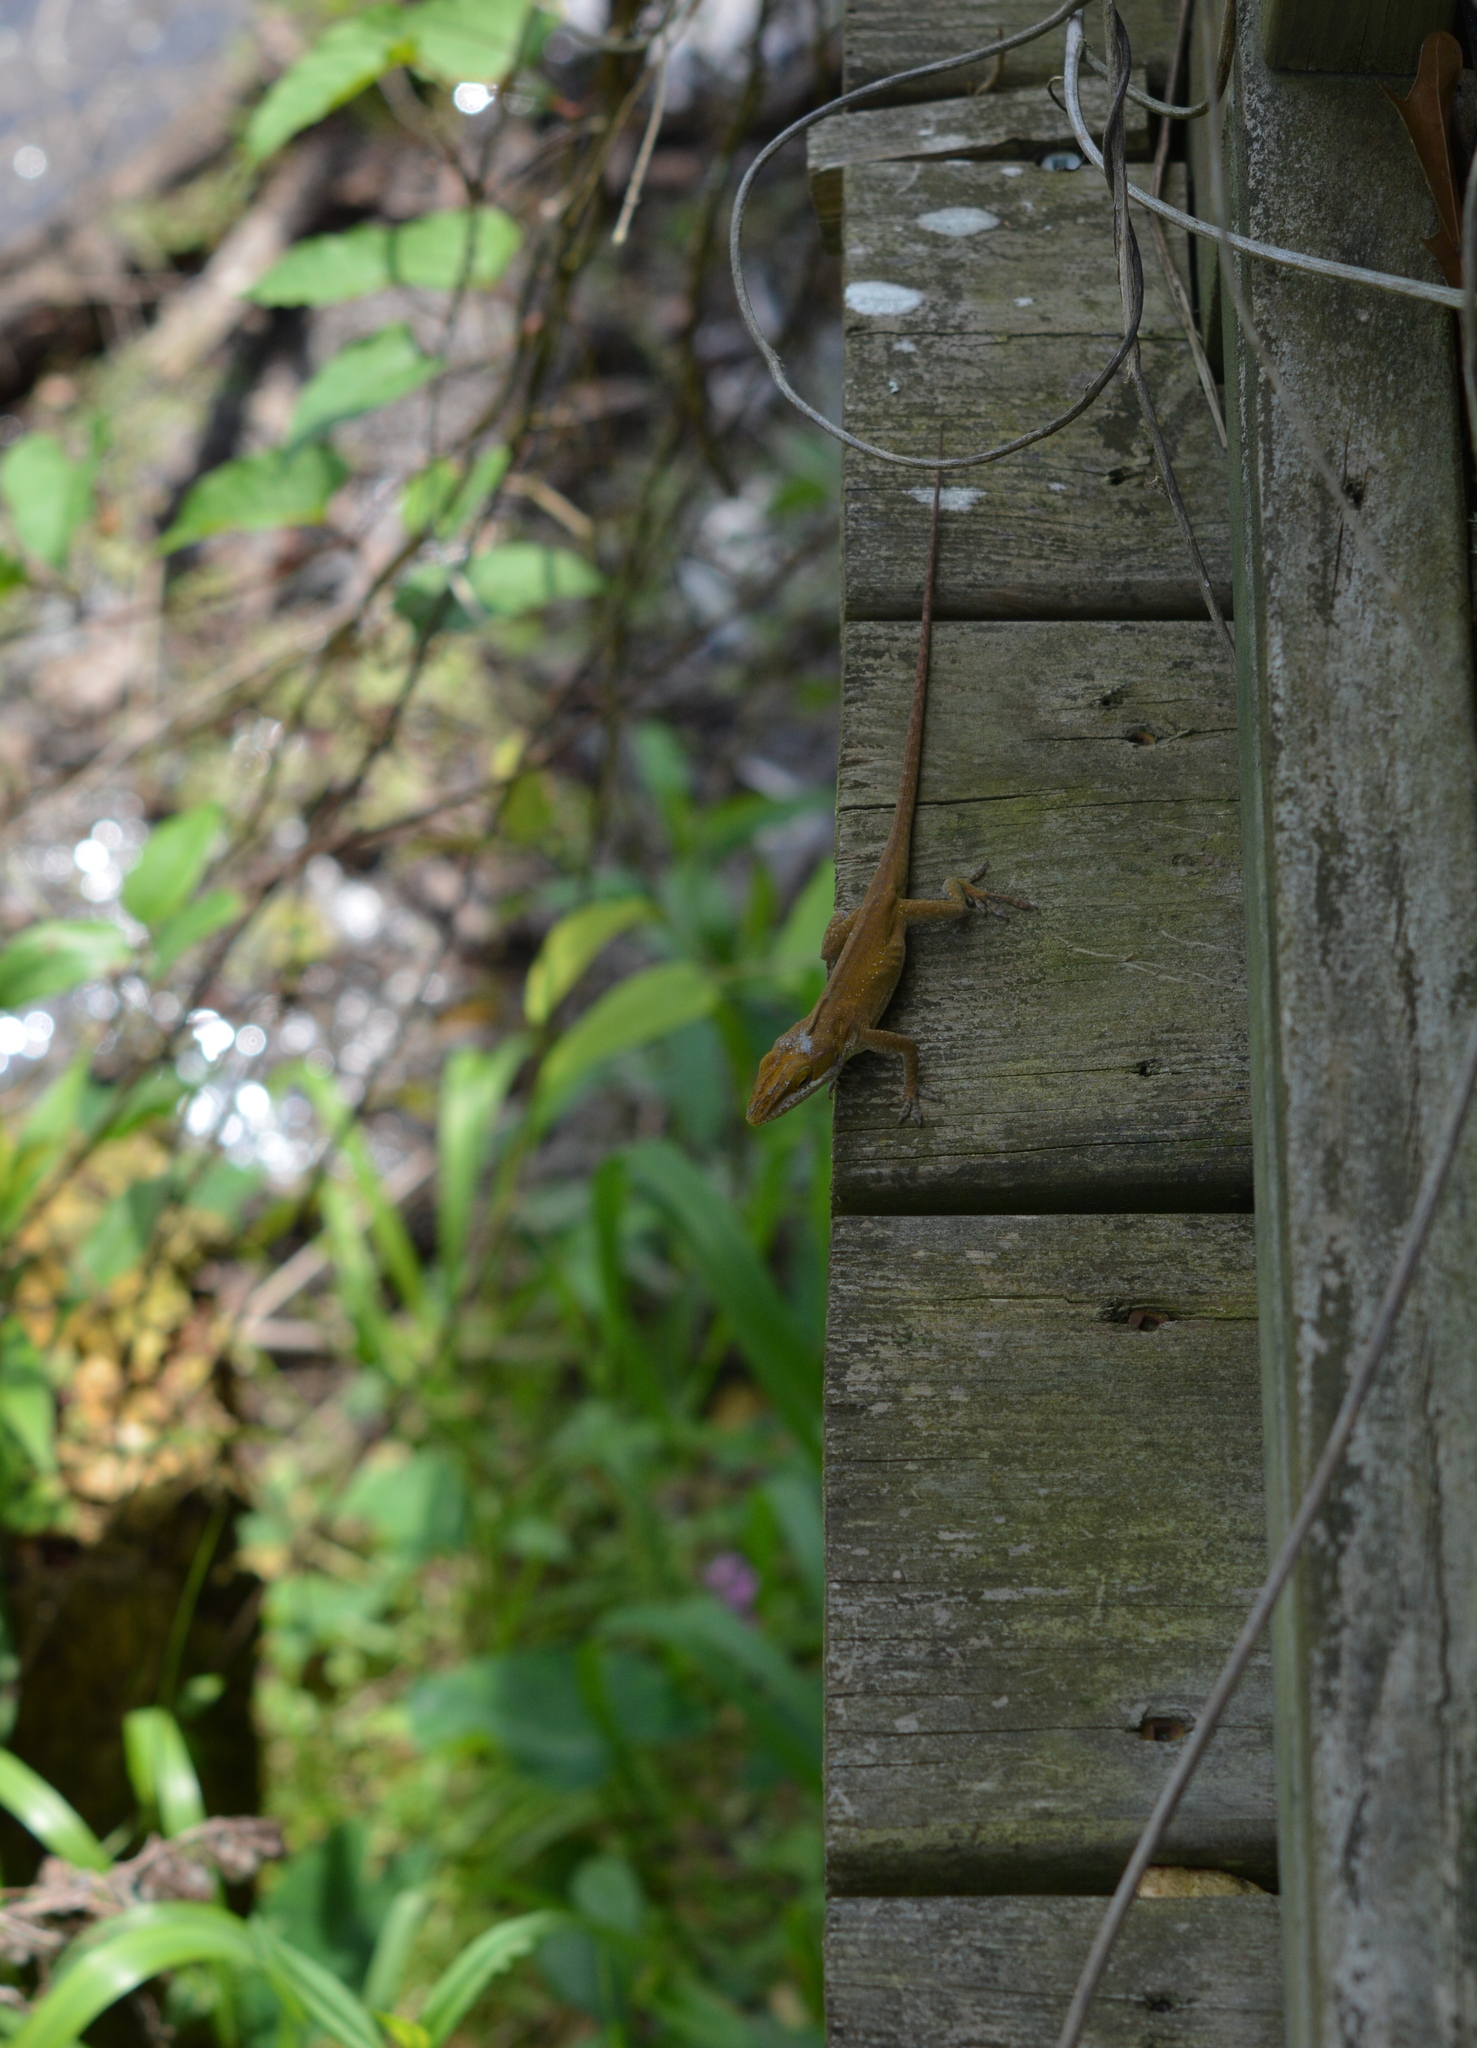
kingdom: Animalia
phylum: Chordata
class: Squamata
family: Dactyloidae
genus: Anolis
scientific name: Anolis carolinensis
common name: Green anole
